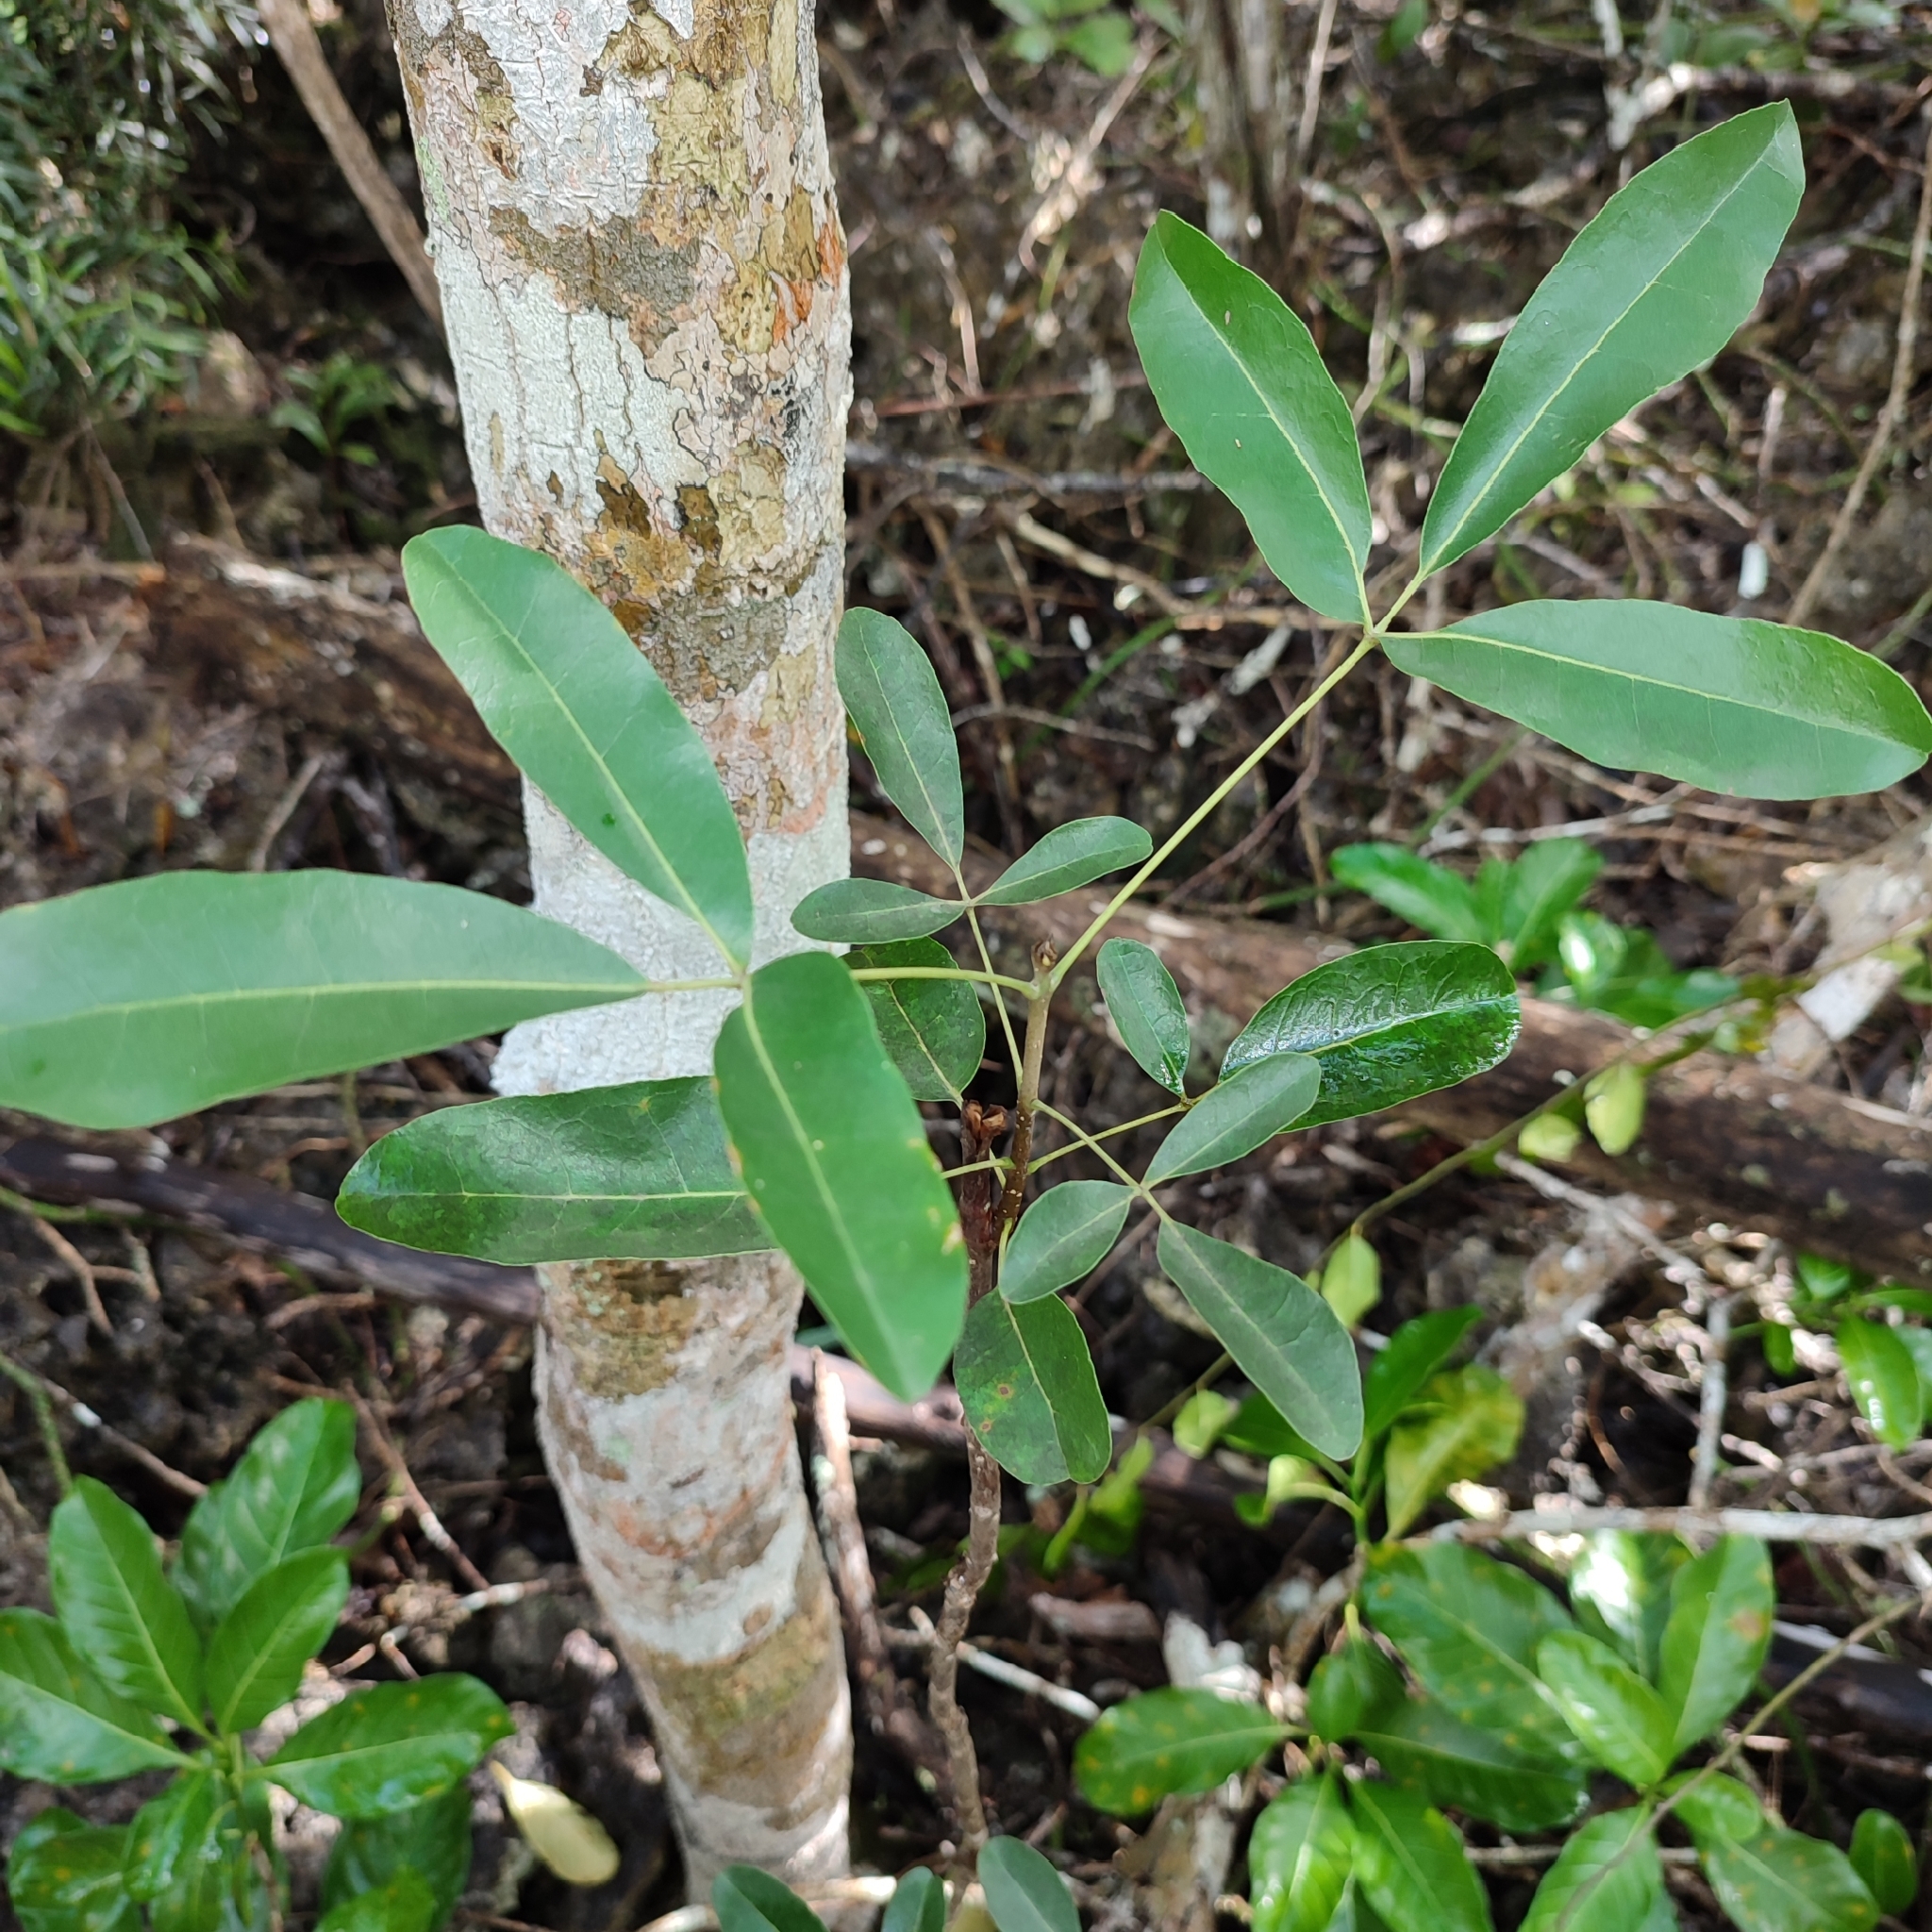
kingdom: Plantae
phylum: Tracheophyta
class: Magnoliopsida
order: Lamiales
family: Bignoniaceae
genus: Tabebuia
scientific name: Tabebuia heterophylla
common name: White cedar
